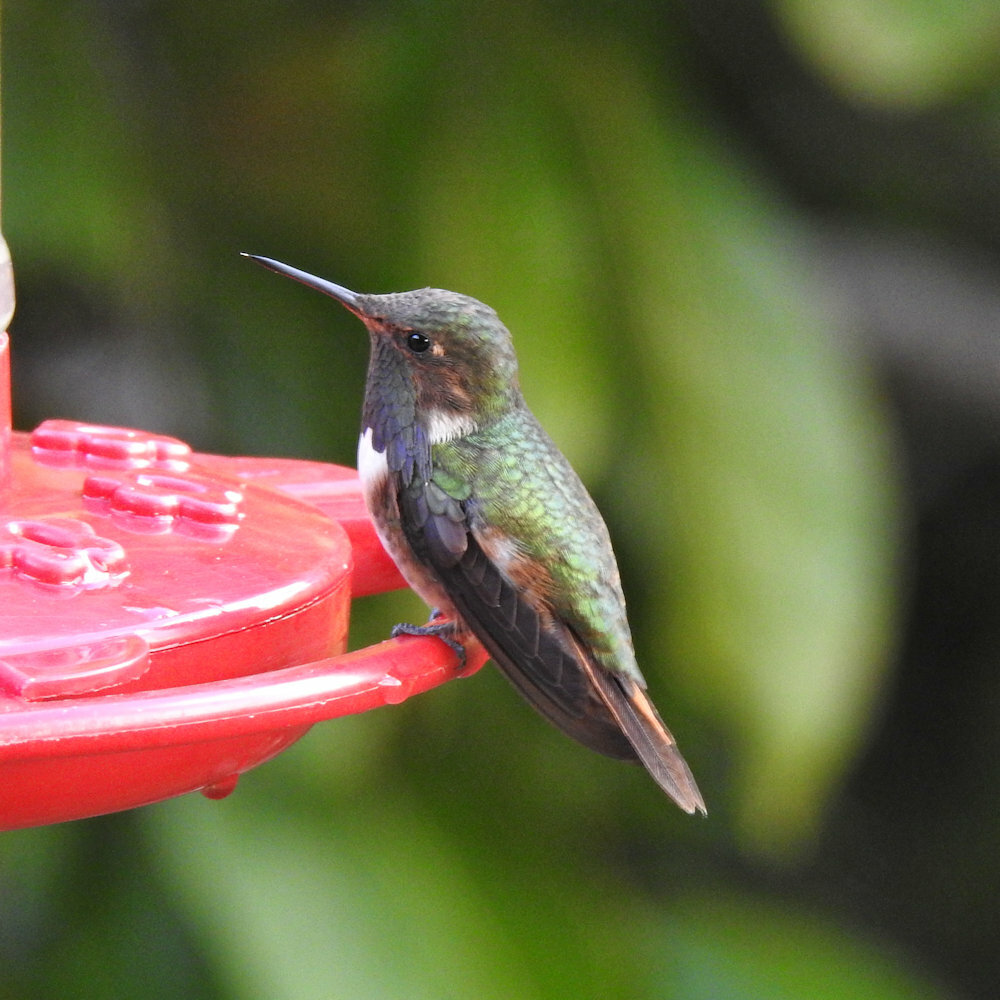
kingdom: Animalia
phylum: Chordata
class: Aves
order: Apodiformes
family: Trochilidae
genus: Selasphorus
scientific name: Selasphorus flammula
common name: Volcano hummingbird
